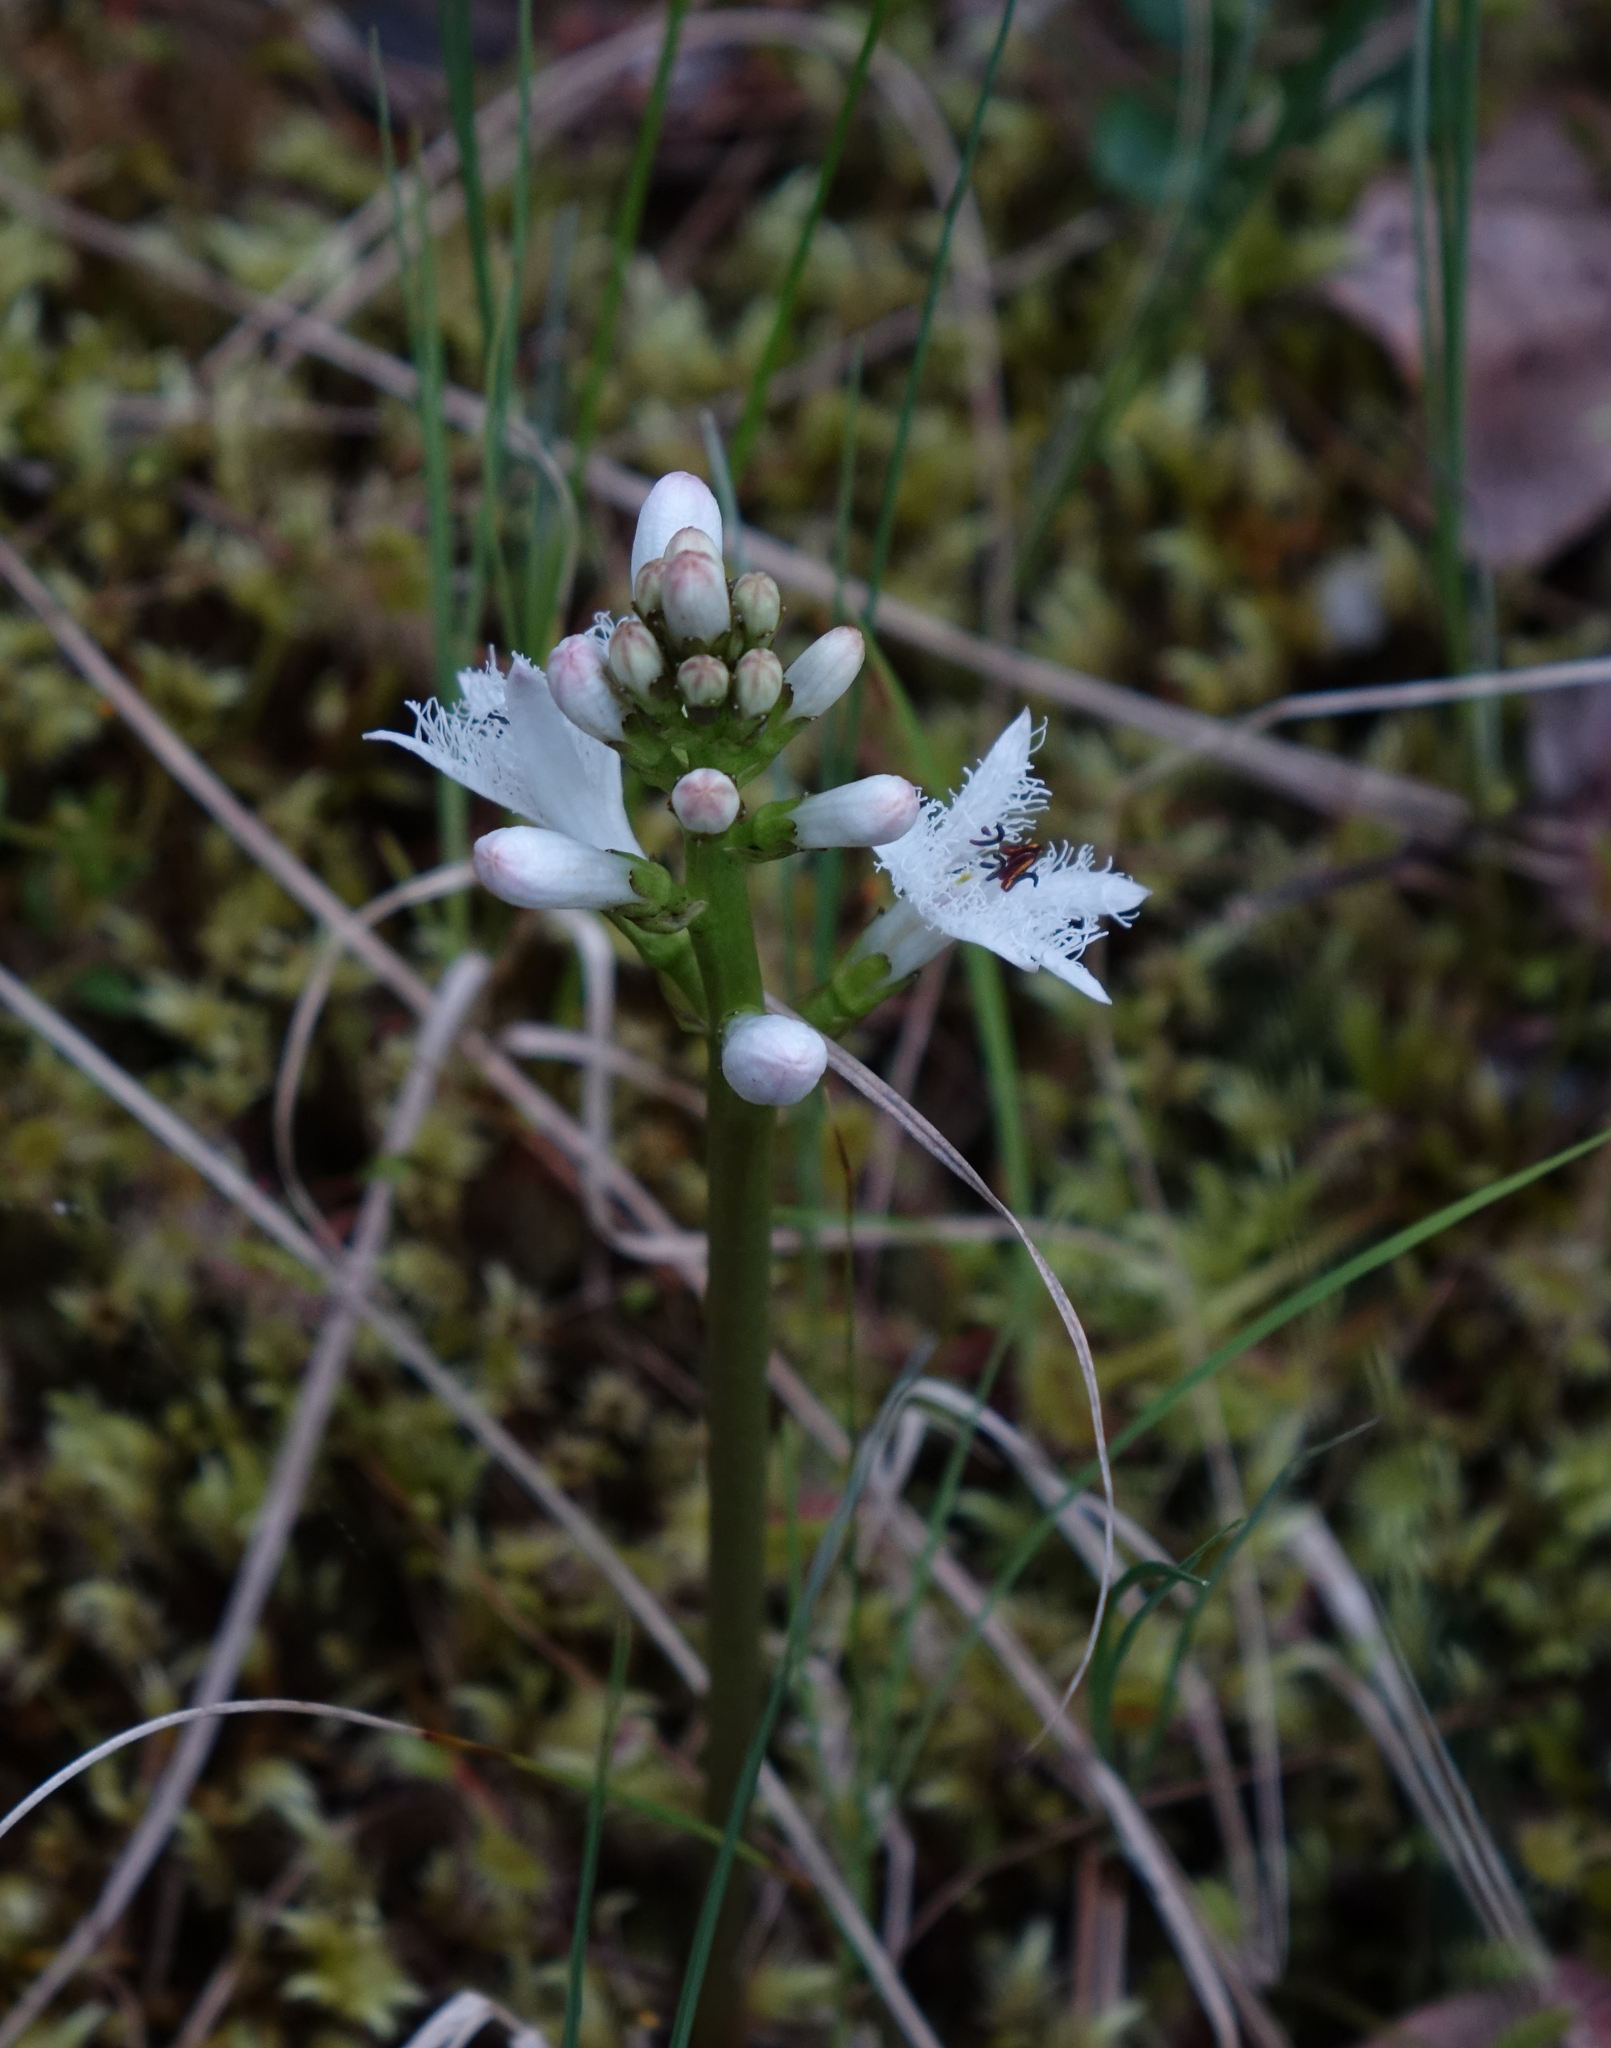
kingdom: Plantae
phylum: Tracheophyta
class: Magnoliopsida
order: Asterales
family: Menyanthaceae
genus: Menyanthes
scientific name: Menyanthes trifoliata
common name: Bogbean
